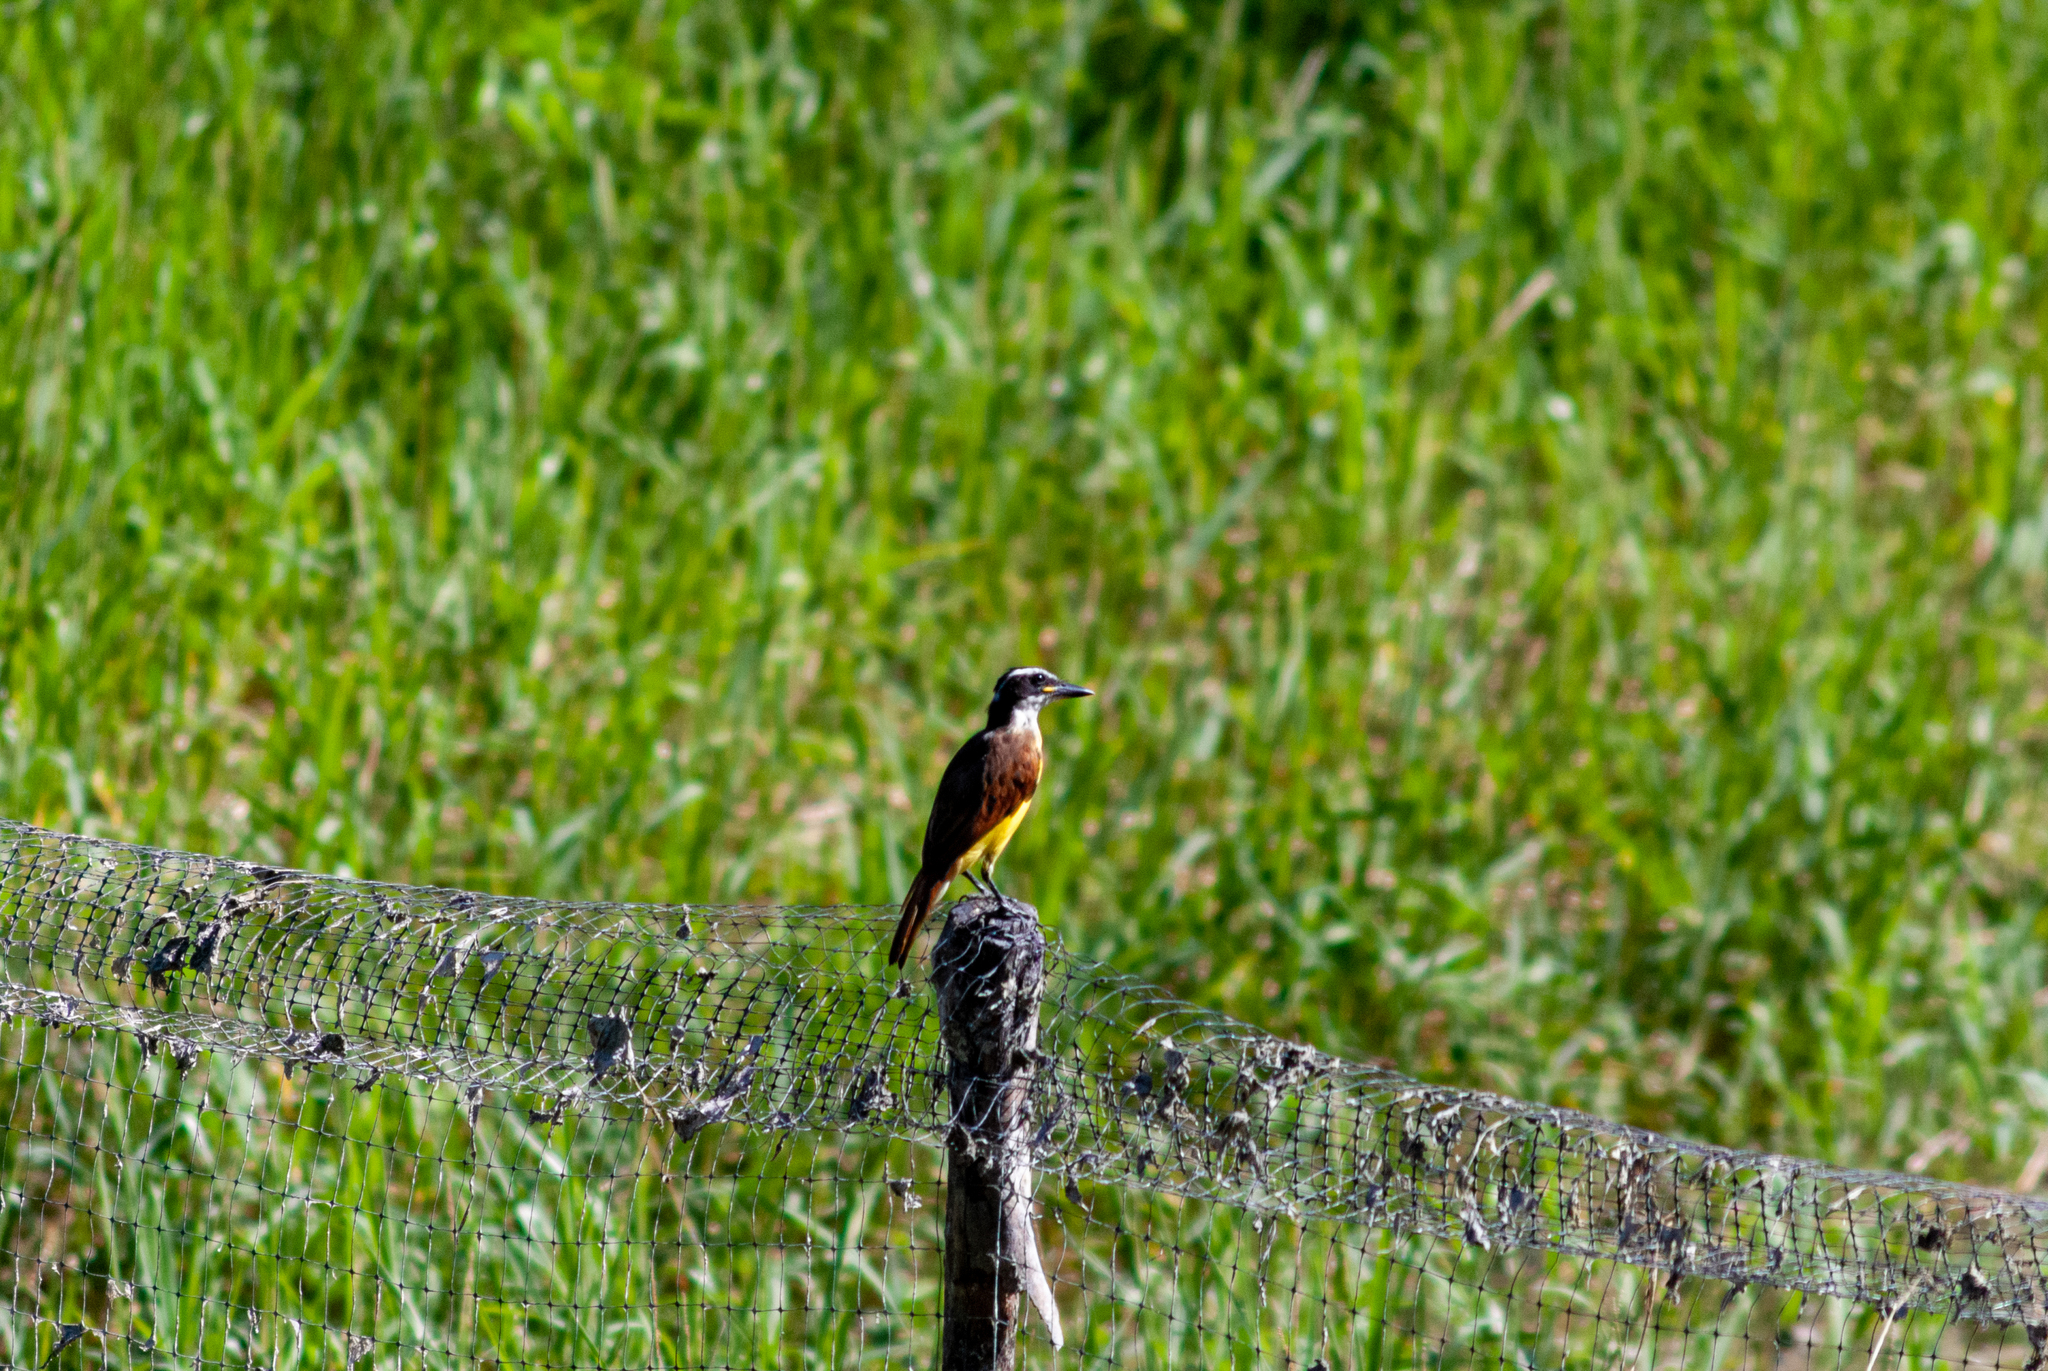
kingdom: Animalia
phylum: Chordata
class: Aves
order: Passeriformes
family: Tyrannidae
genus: Pitangus
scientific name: Pitangus sulphuratus
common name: Great kiskadee
